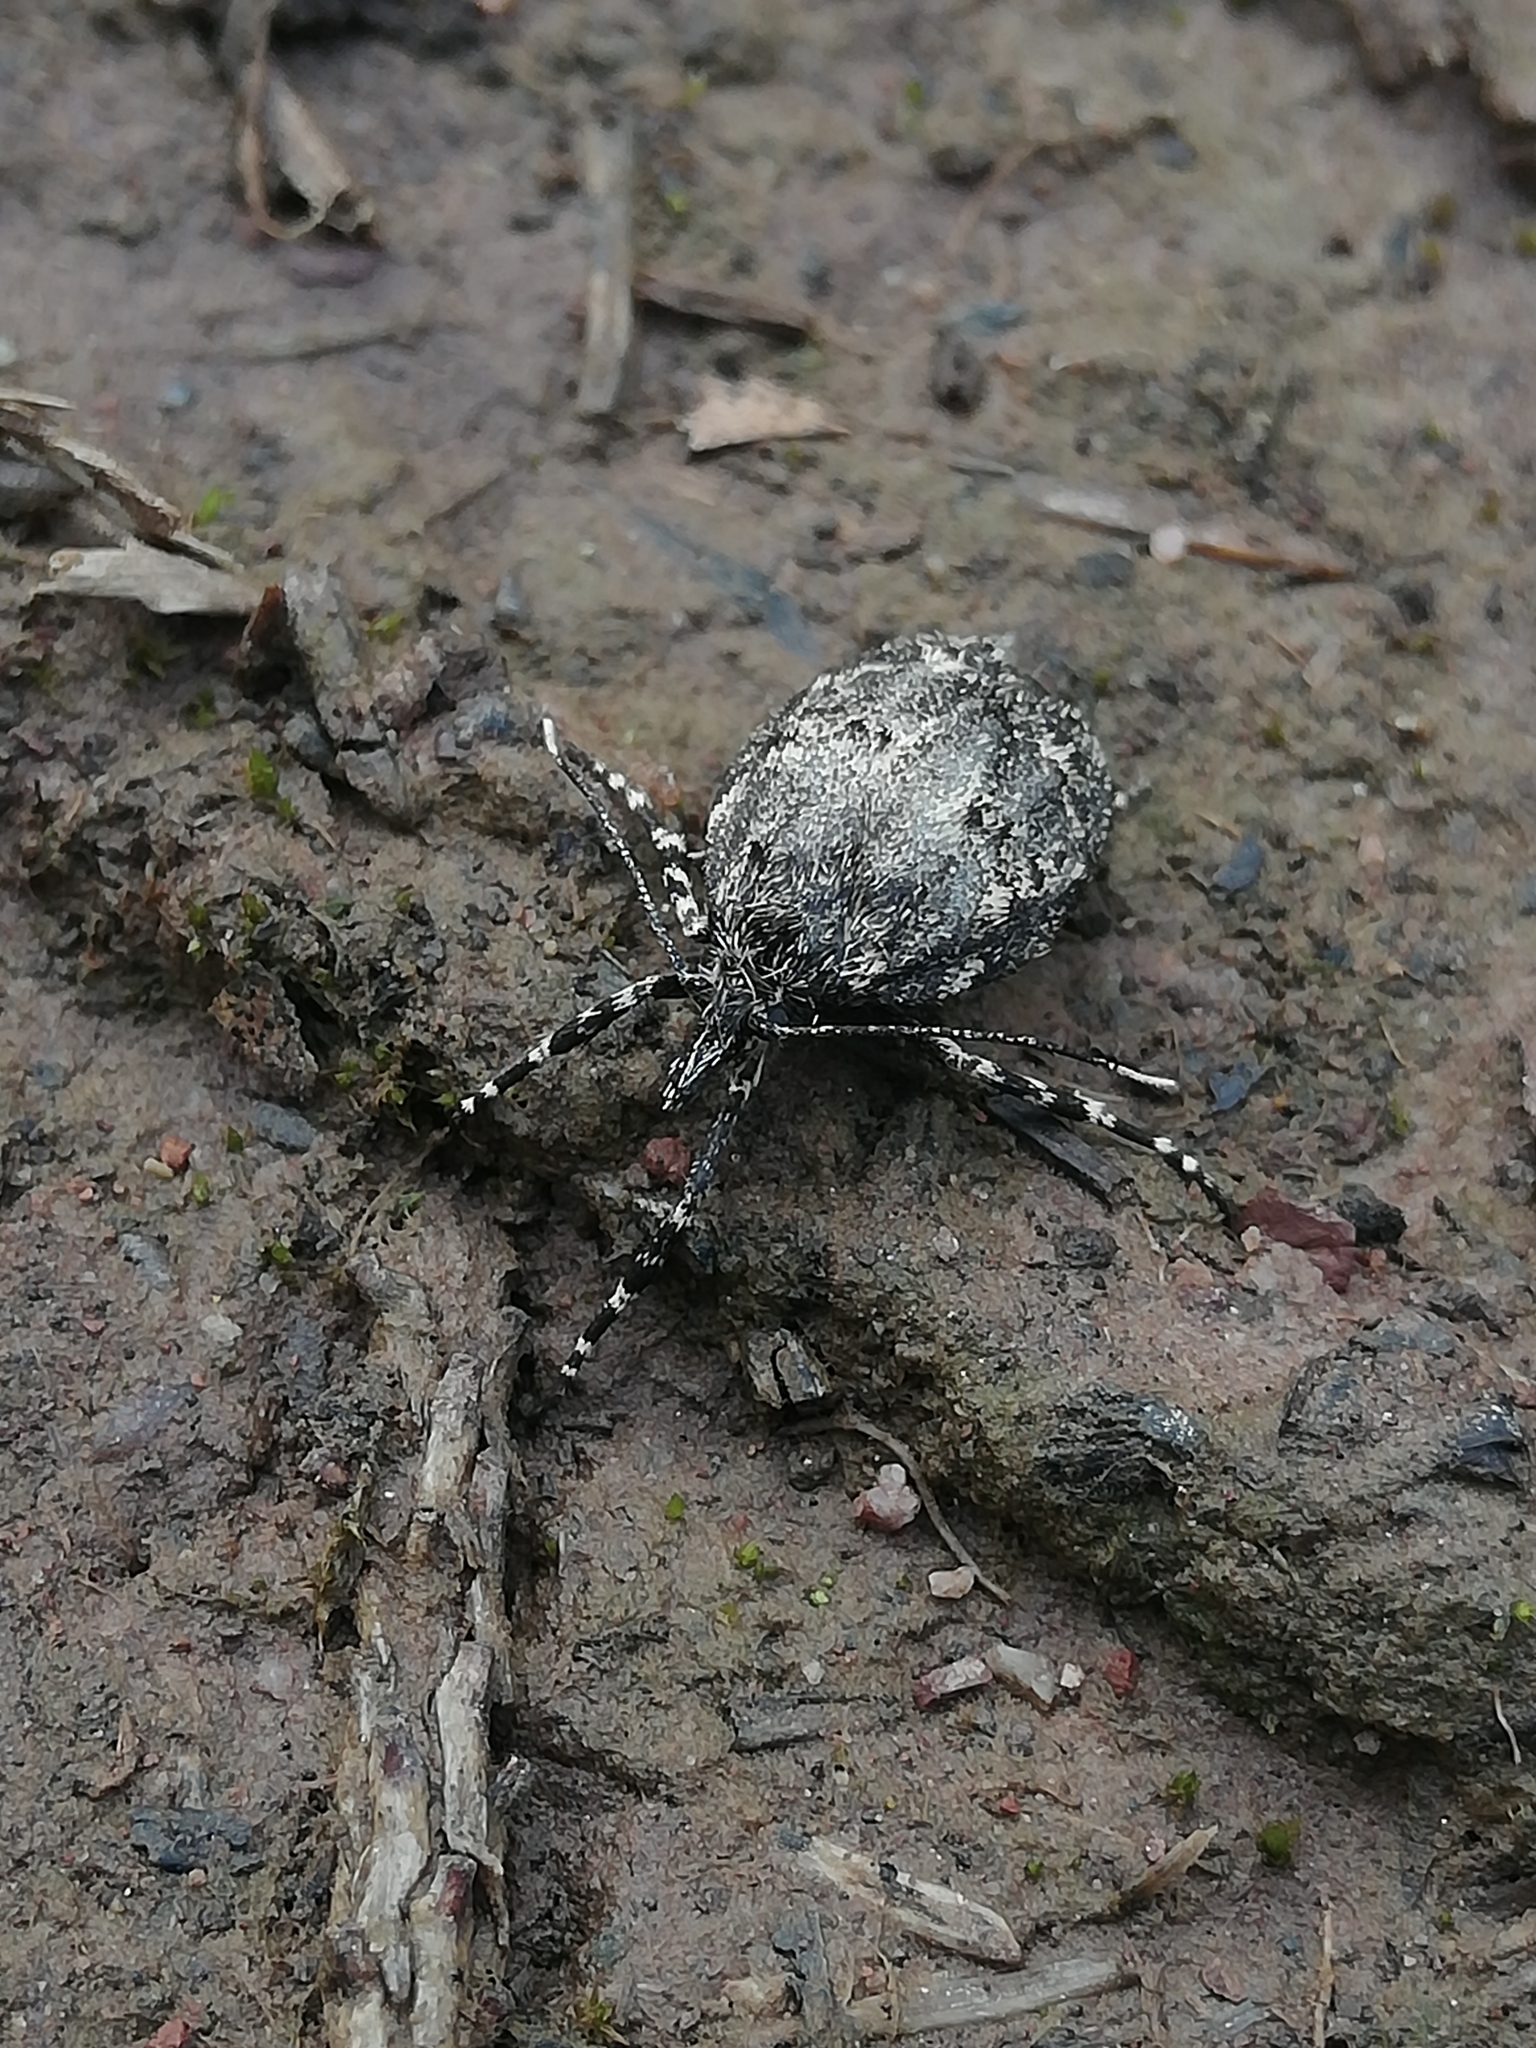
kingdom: Animalia
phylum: Arthropoda
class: Insecta
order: Lepidoptera
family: Lypusidae
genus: Diurnea
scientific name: Diurnea fagella
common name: March tubic
